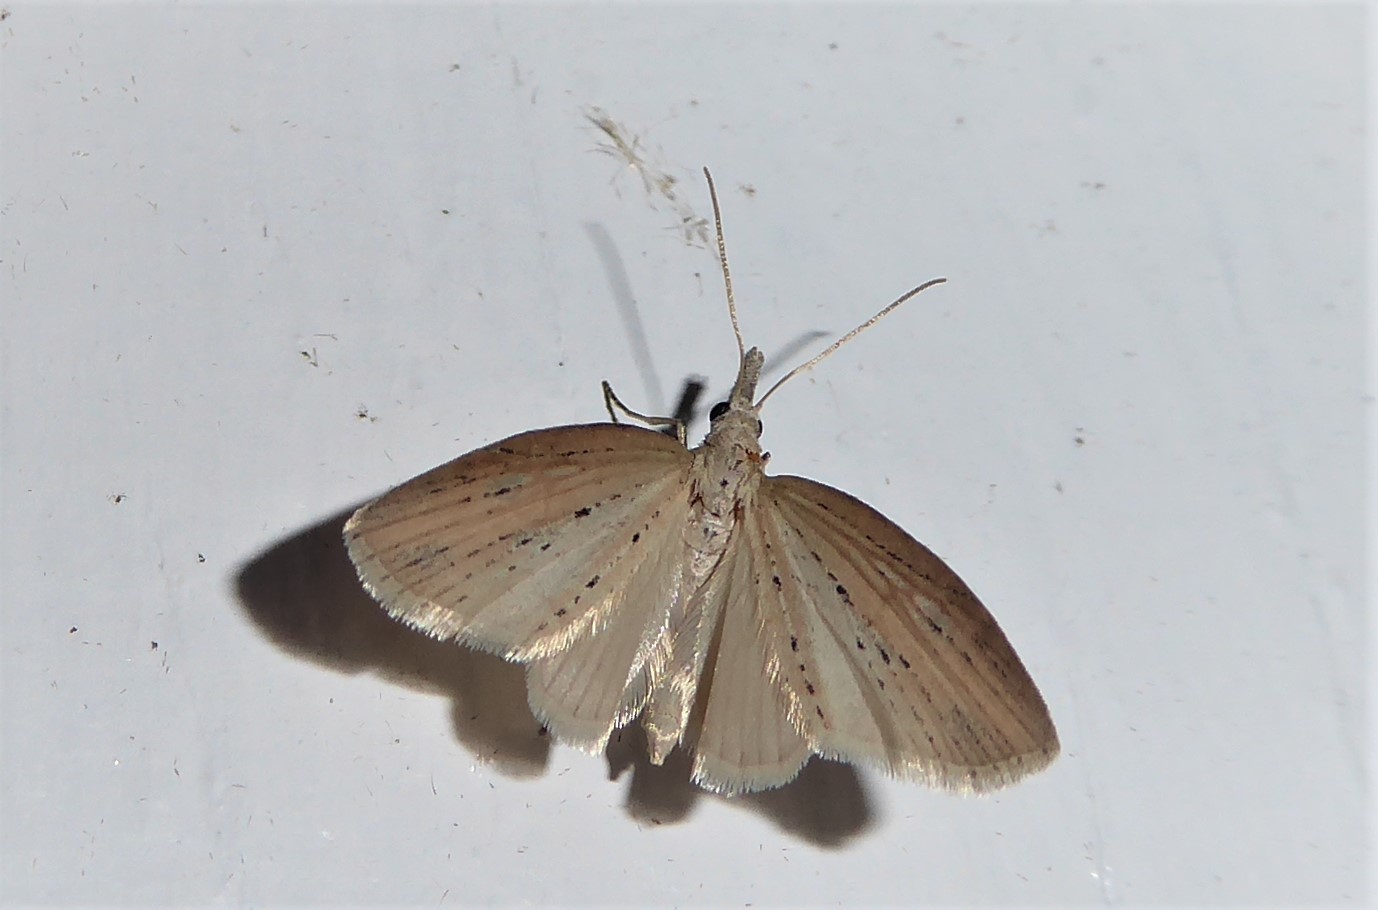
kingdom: Animalia
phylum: Arthropoda
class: Insecta
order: Lepidoptera
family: Geometridae
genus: Microdes
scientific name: Microdes epicryptis
